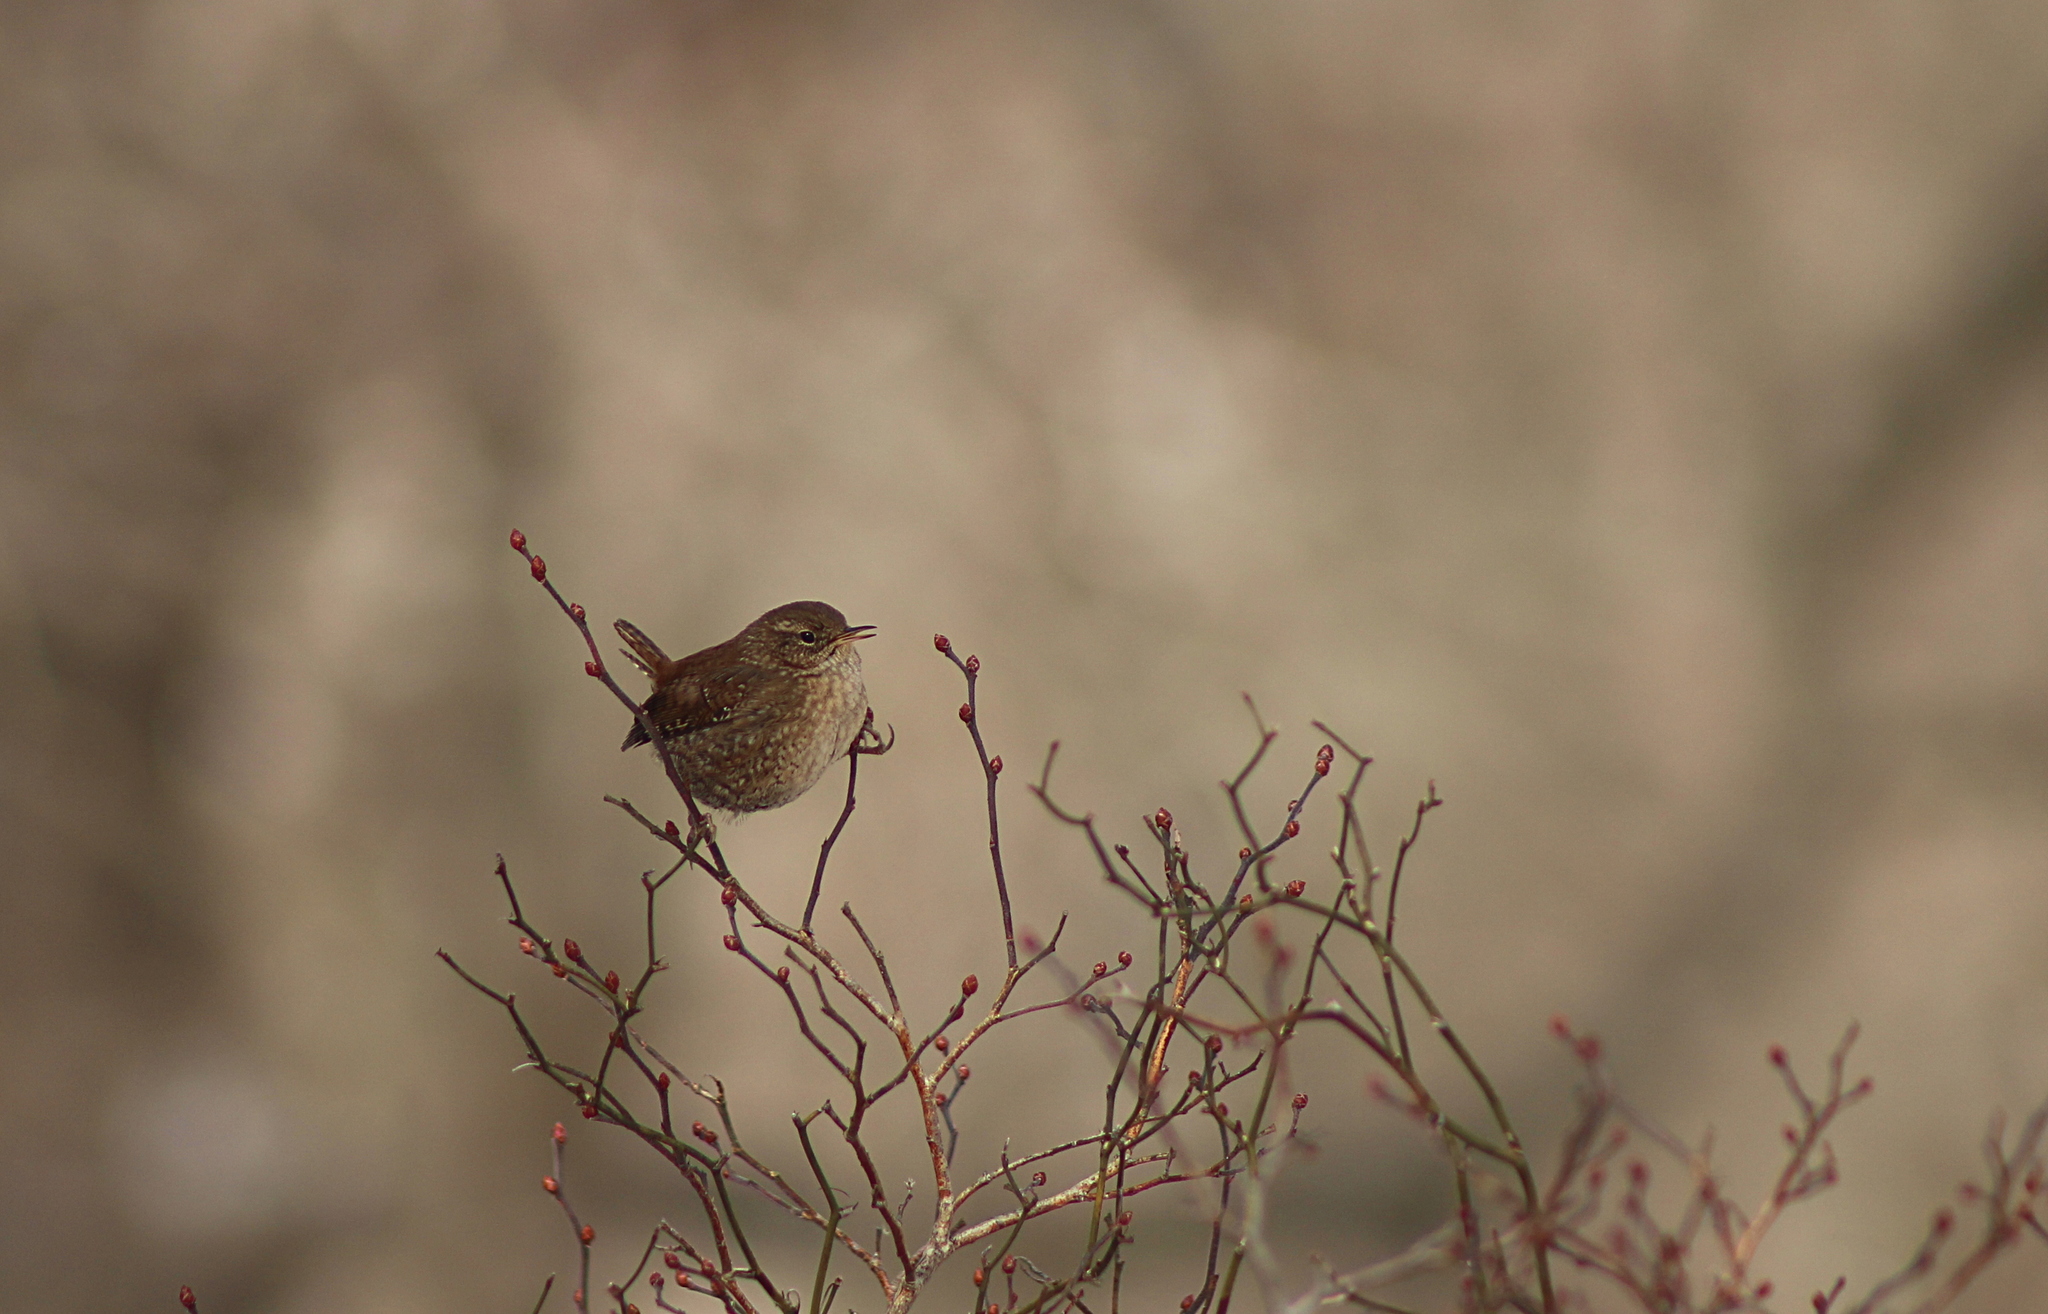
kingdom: Animalia
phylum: Chordata
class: Aves
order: Passeriformes
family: Troglodytidae
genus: Troglodytes
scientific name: Troglodytes hiemalis
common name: Winter wren
